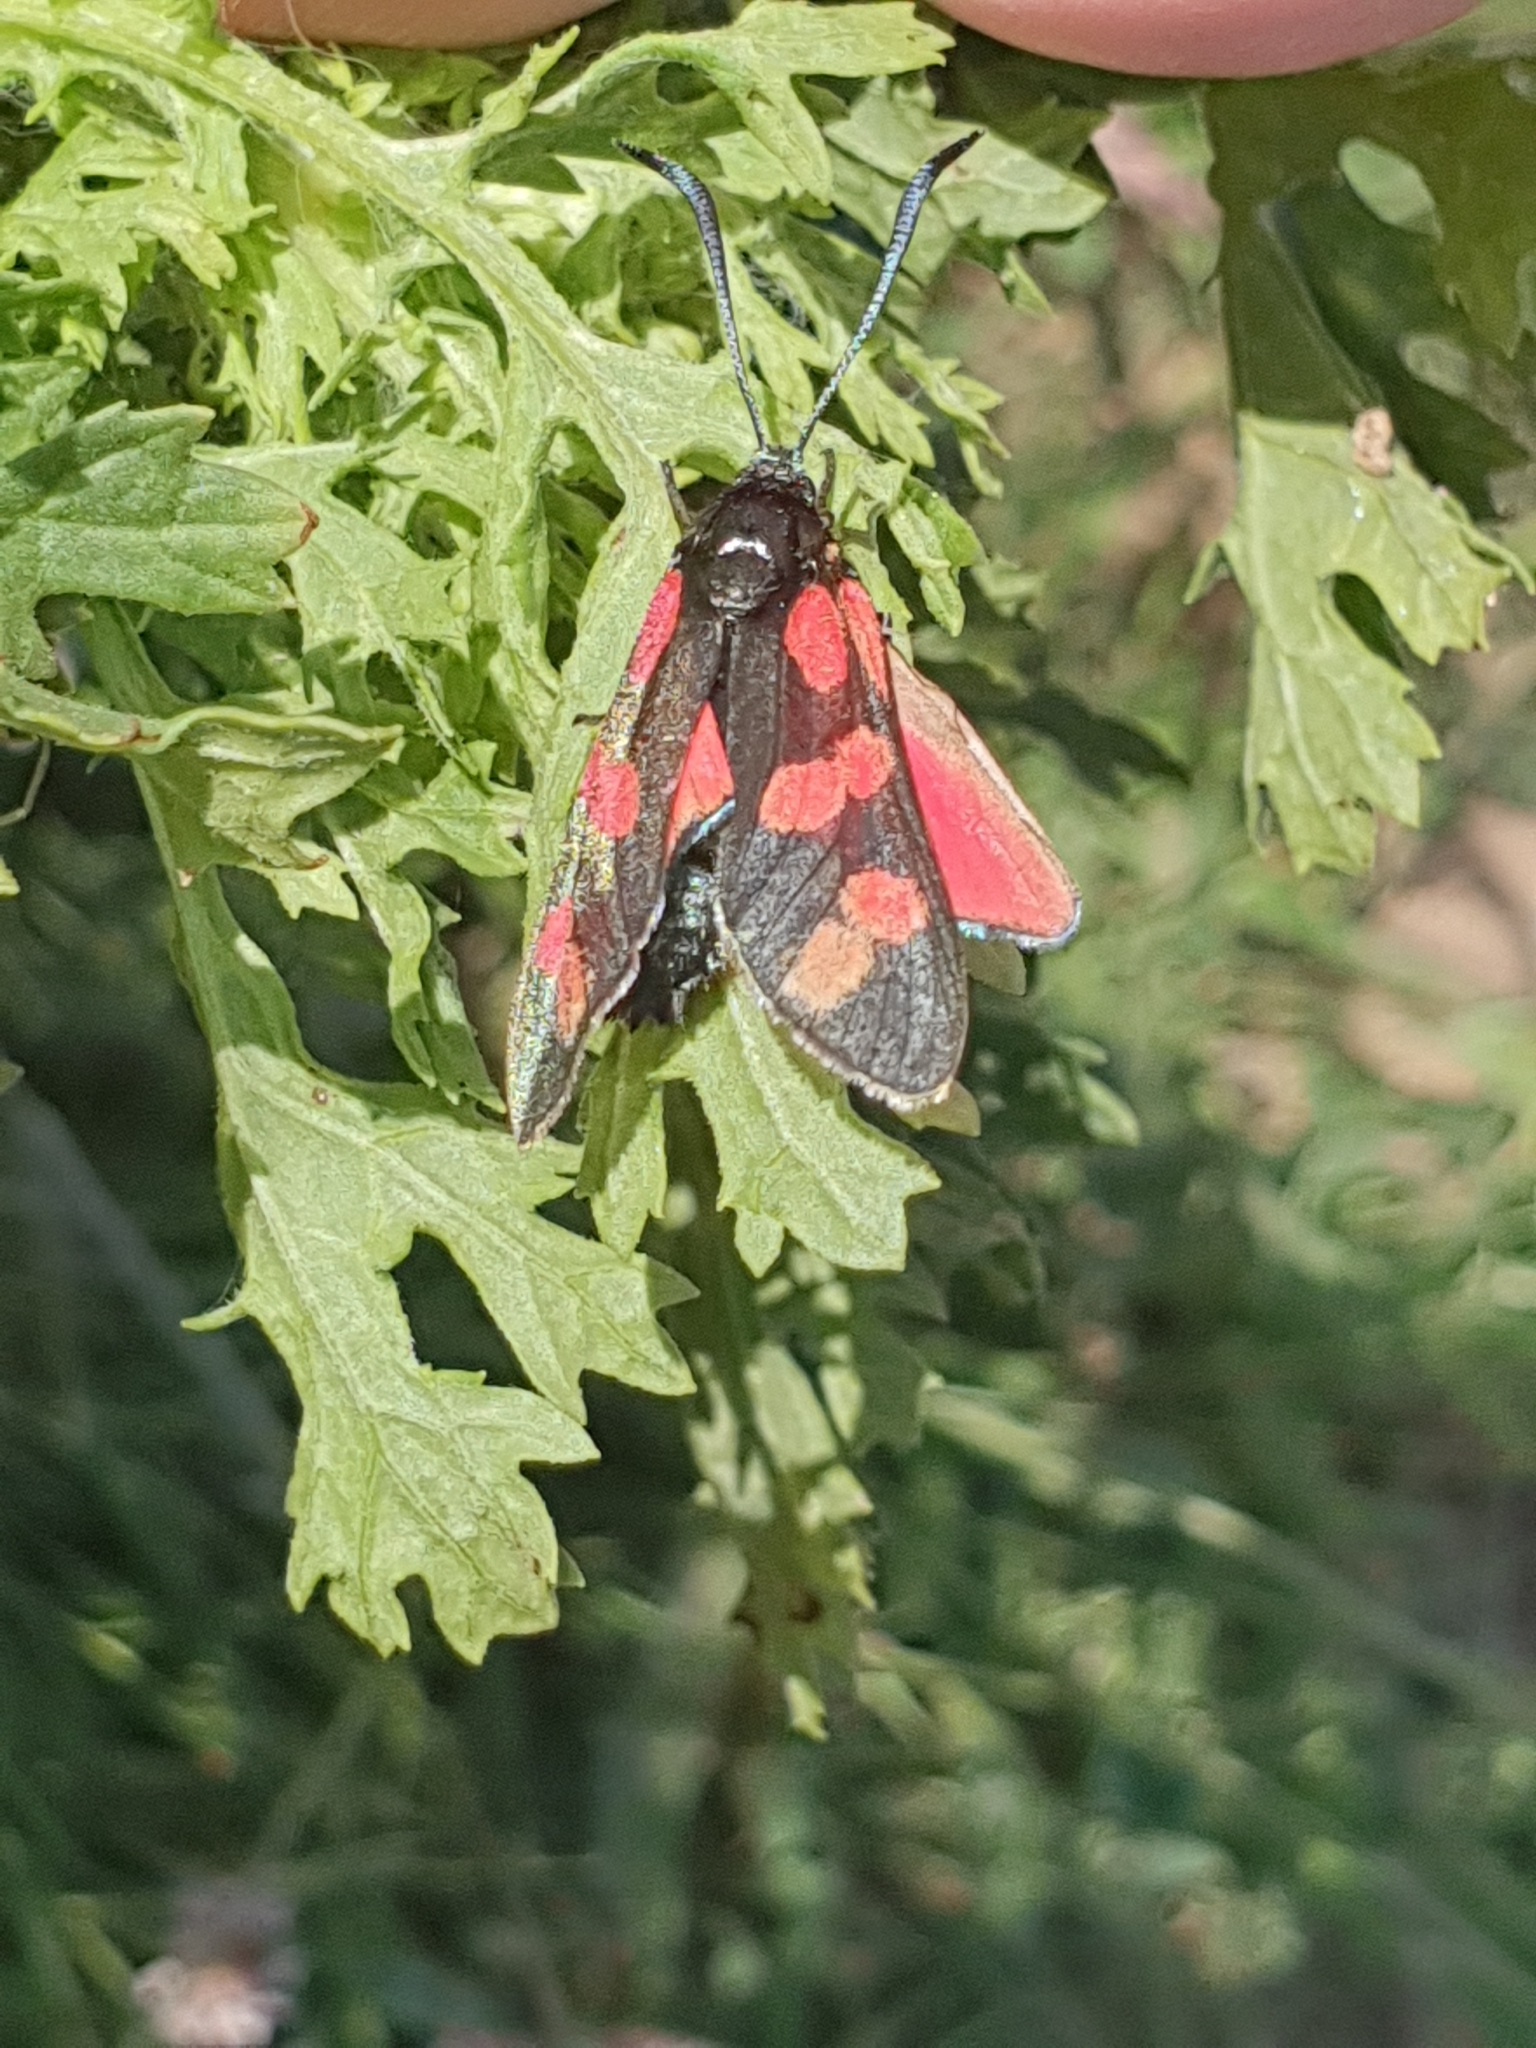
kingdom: Animalia
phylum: Arthropoda
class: Insecta
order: Lepidoptera
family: Zygaenidae
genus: Zygaena
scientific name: Zygaena filipendulae
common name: Six-spot burnet
